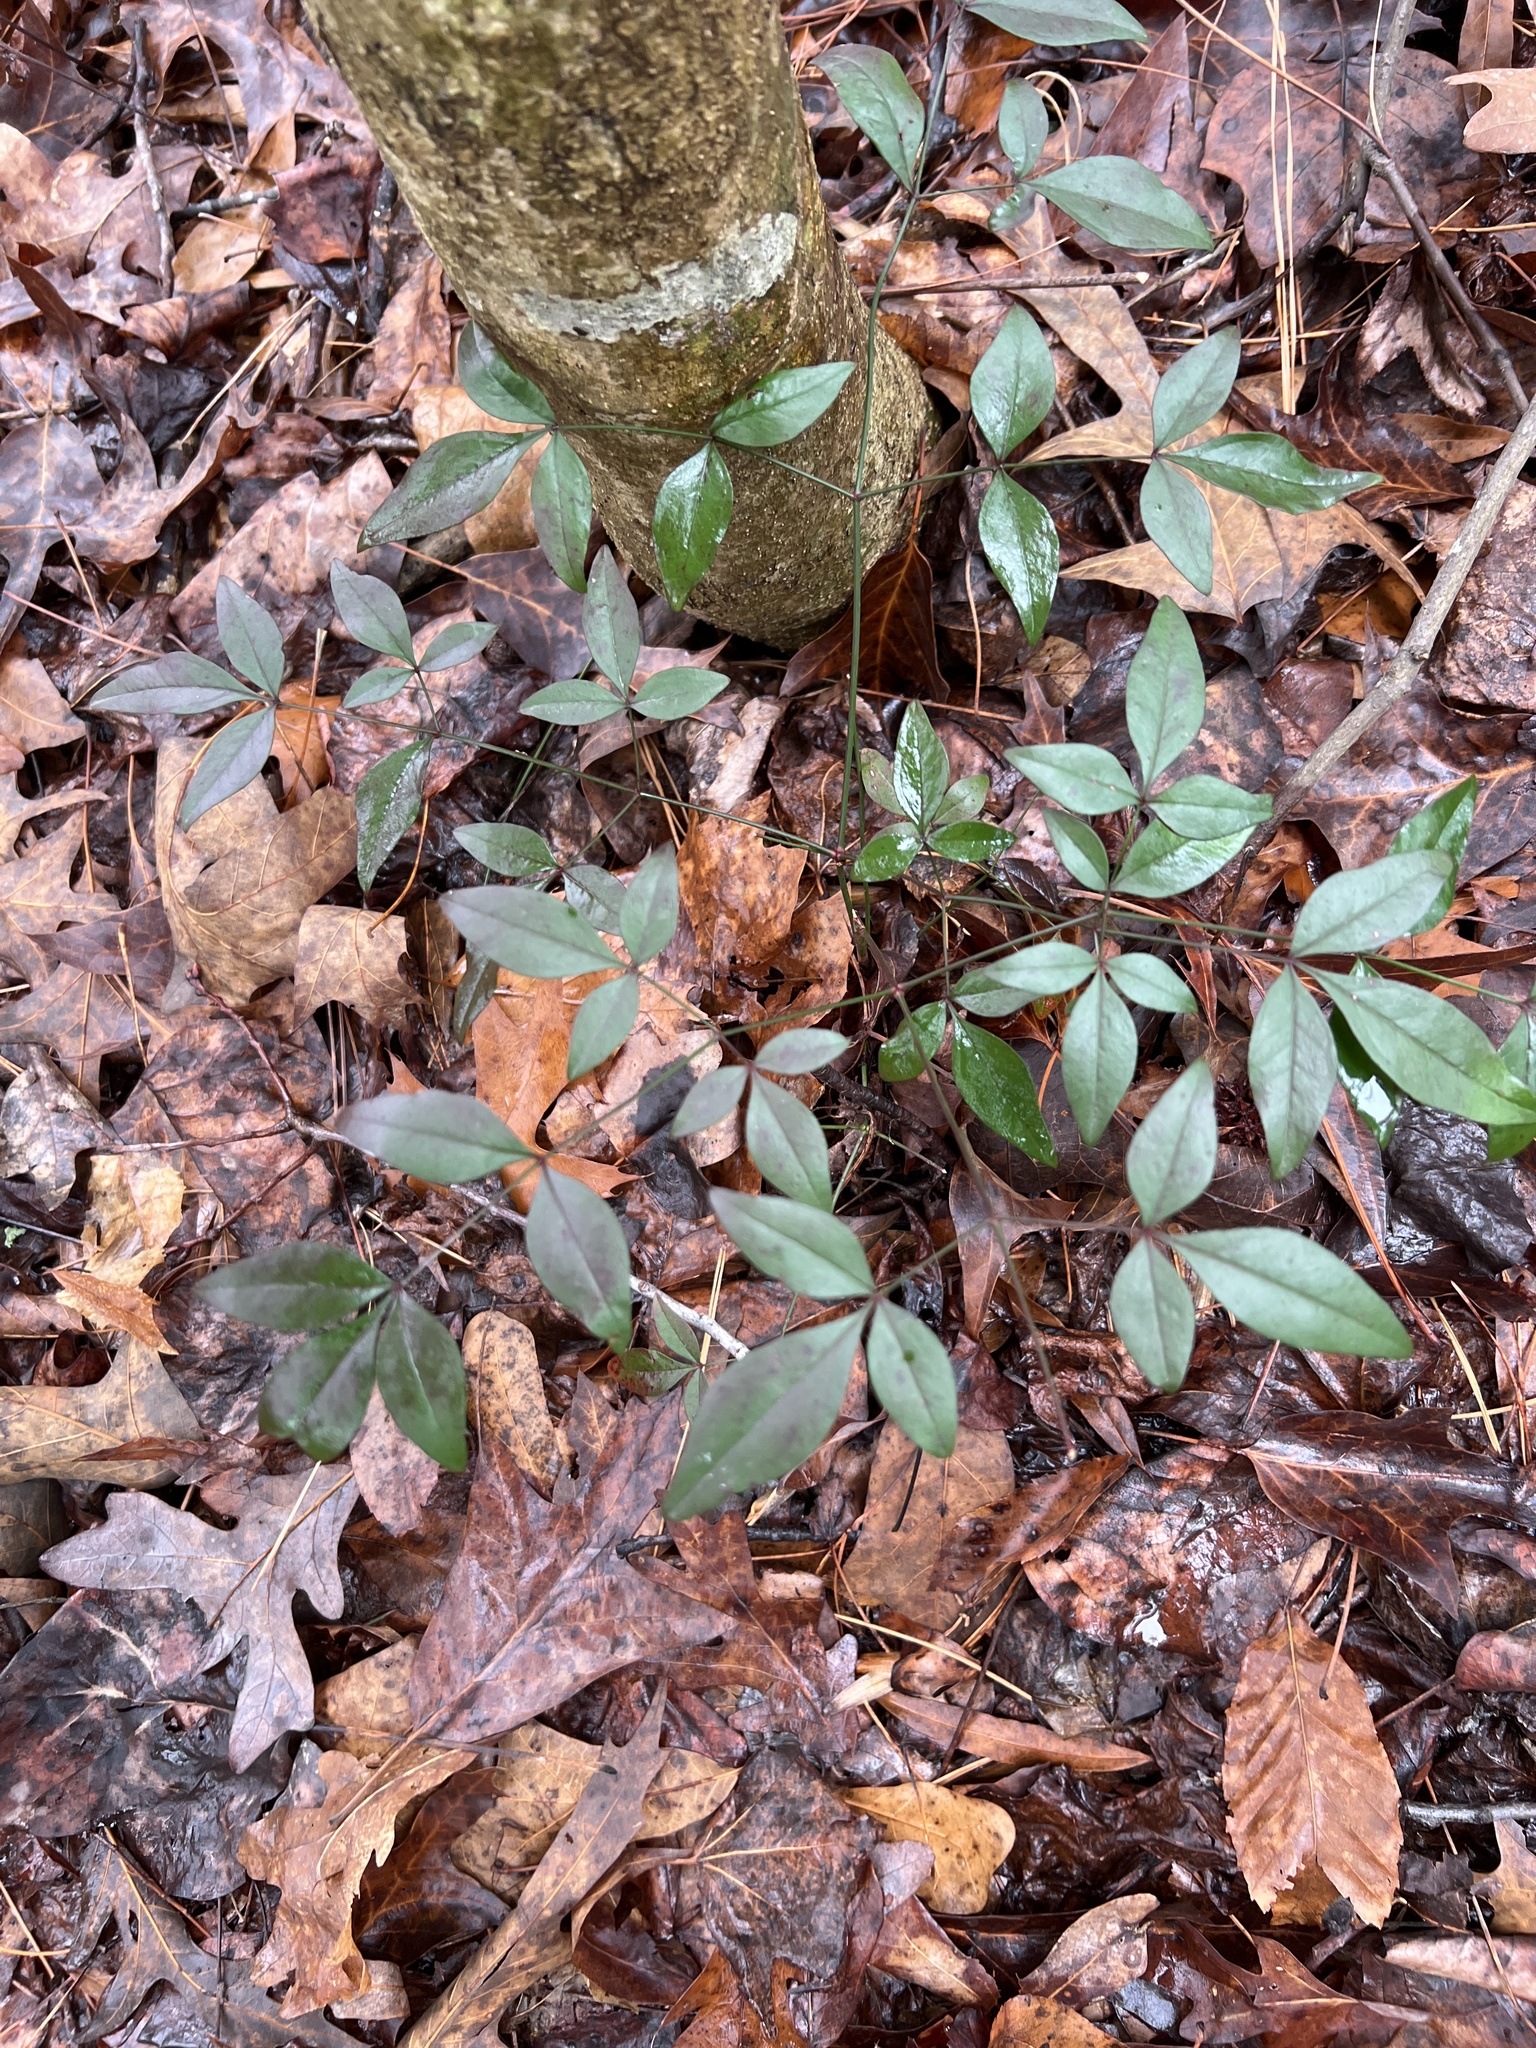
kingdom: Plantae
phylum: Tracheophyta
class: Magnoliopsida
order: Ranunculales
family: Berberidaceae
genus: Nandina
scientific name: Nandina domestica
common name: Sacred bamboo
